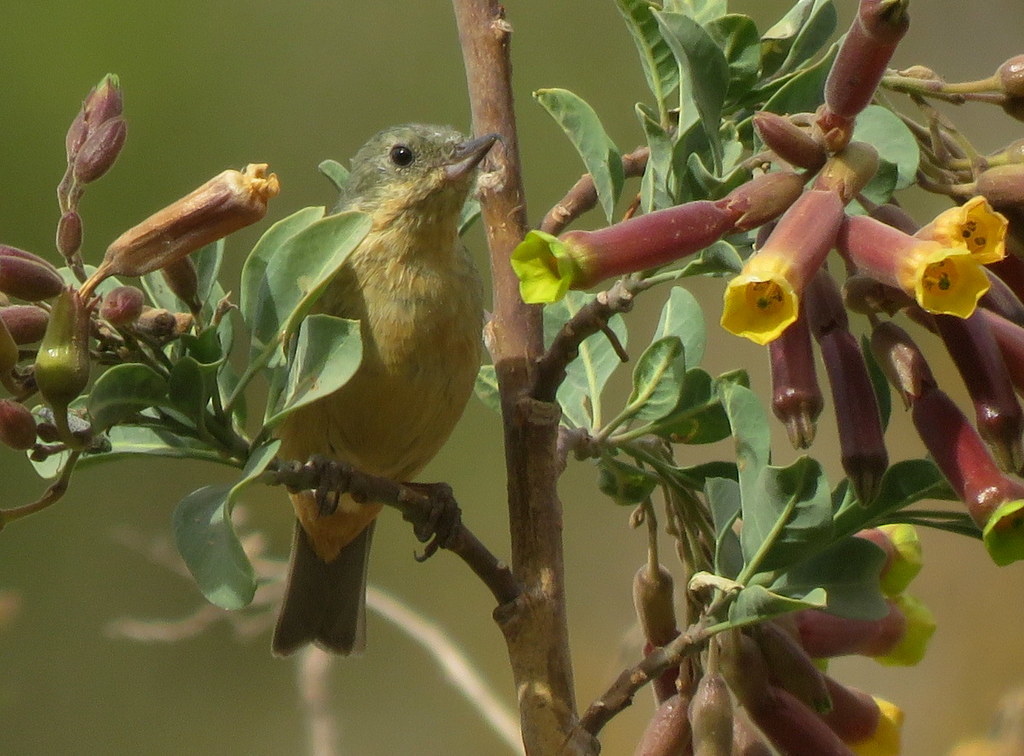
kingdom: Animalia
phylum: Chordata
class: Aves
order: Passeriformes
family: Thraupidae
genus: Diglossa
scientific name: Diglossa sittoides
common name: Rusty flowerpiercer
